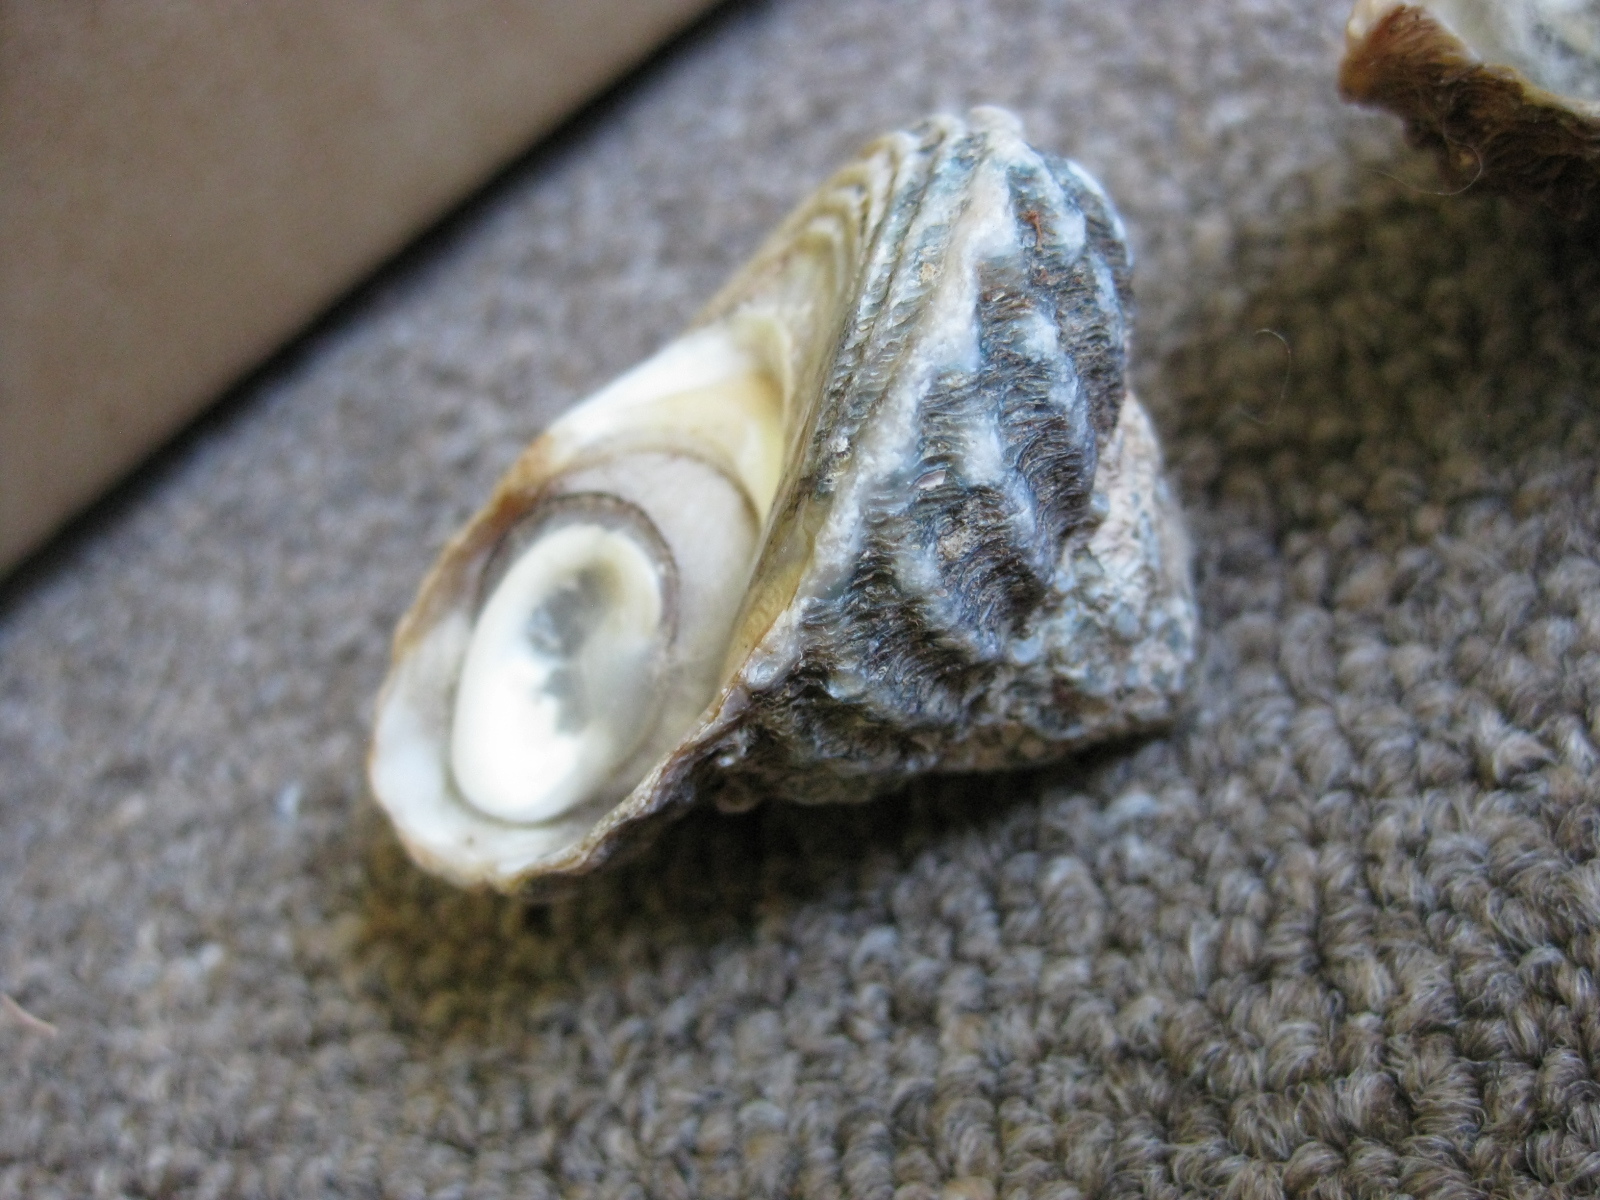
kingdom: Animalia
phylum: Mollusca
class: Gastropoda
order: Trochida
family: Turbinidae
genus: Cookia
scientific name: Cookia sulcata
